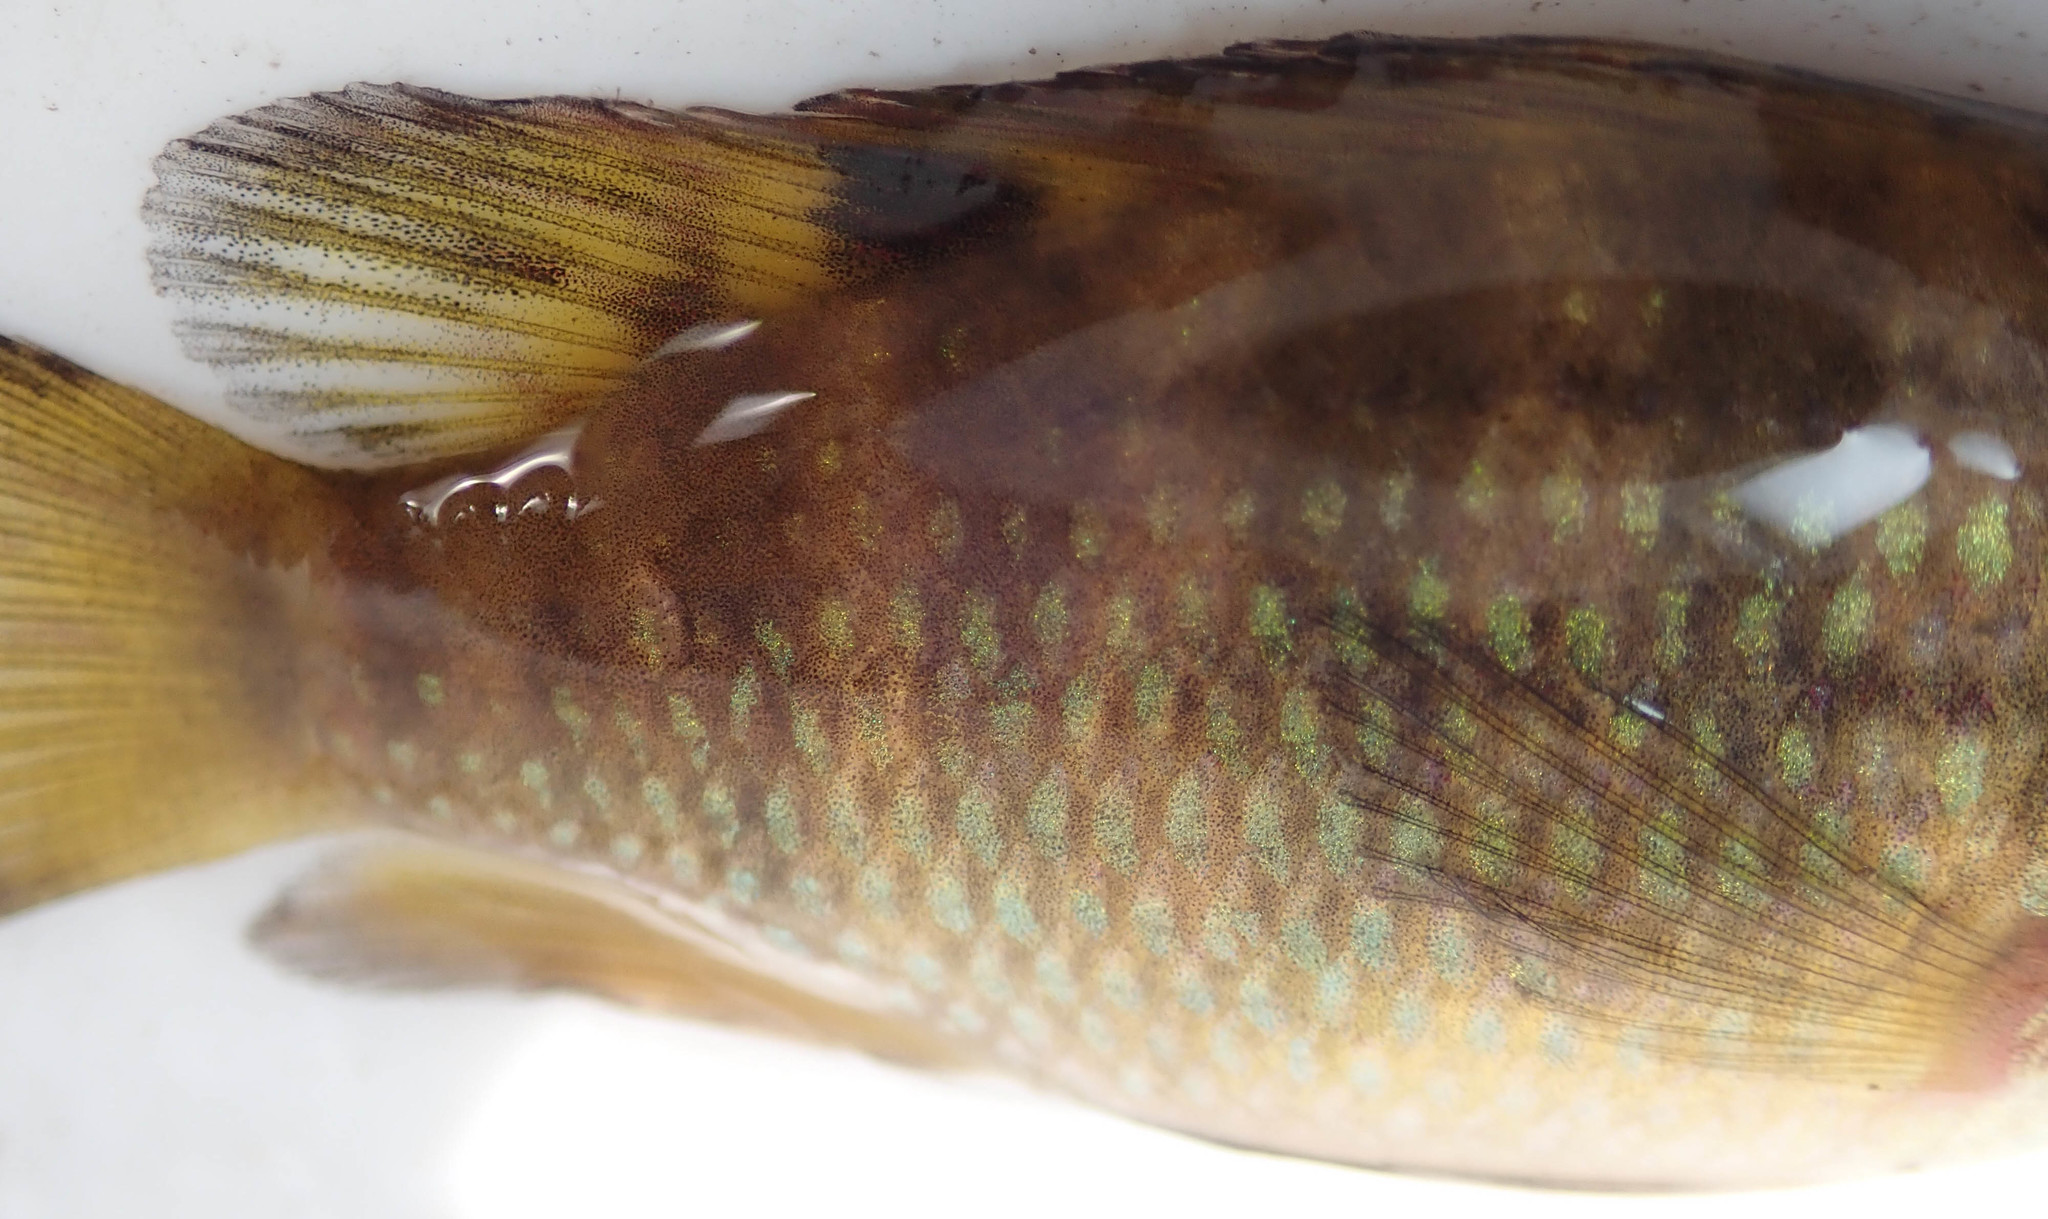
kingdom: Animalia
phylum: Chordata
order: Perciformes
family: Cichlidae
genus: Tilapia
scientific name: Tilapia sparrmanii
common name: Banded tilapia
